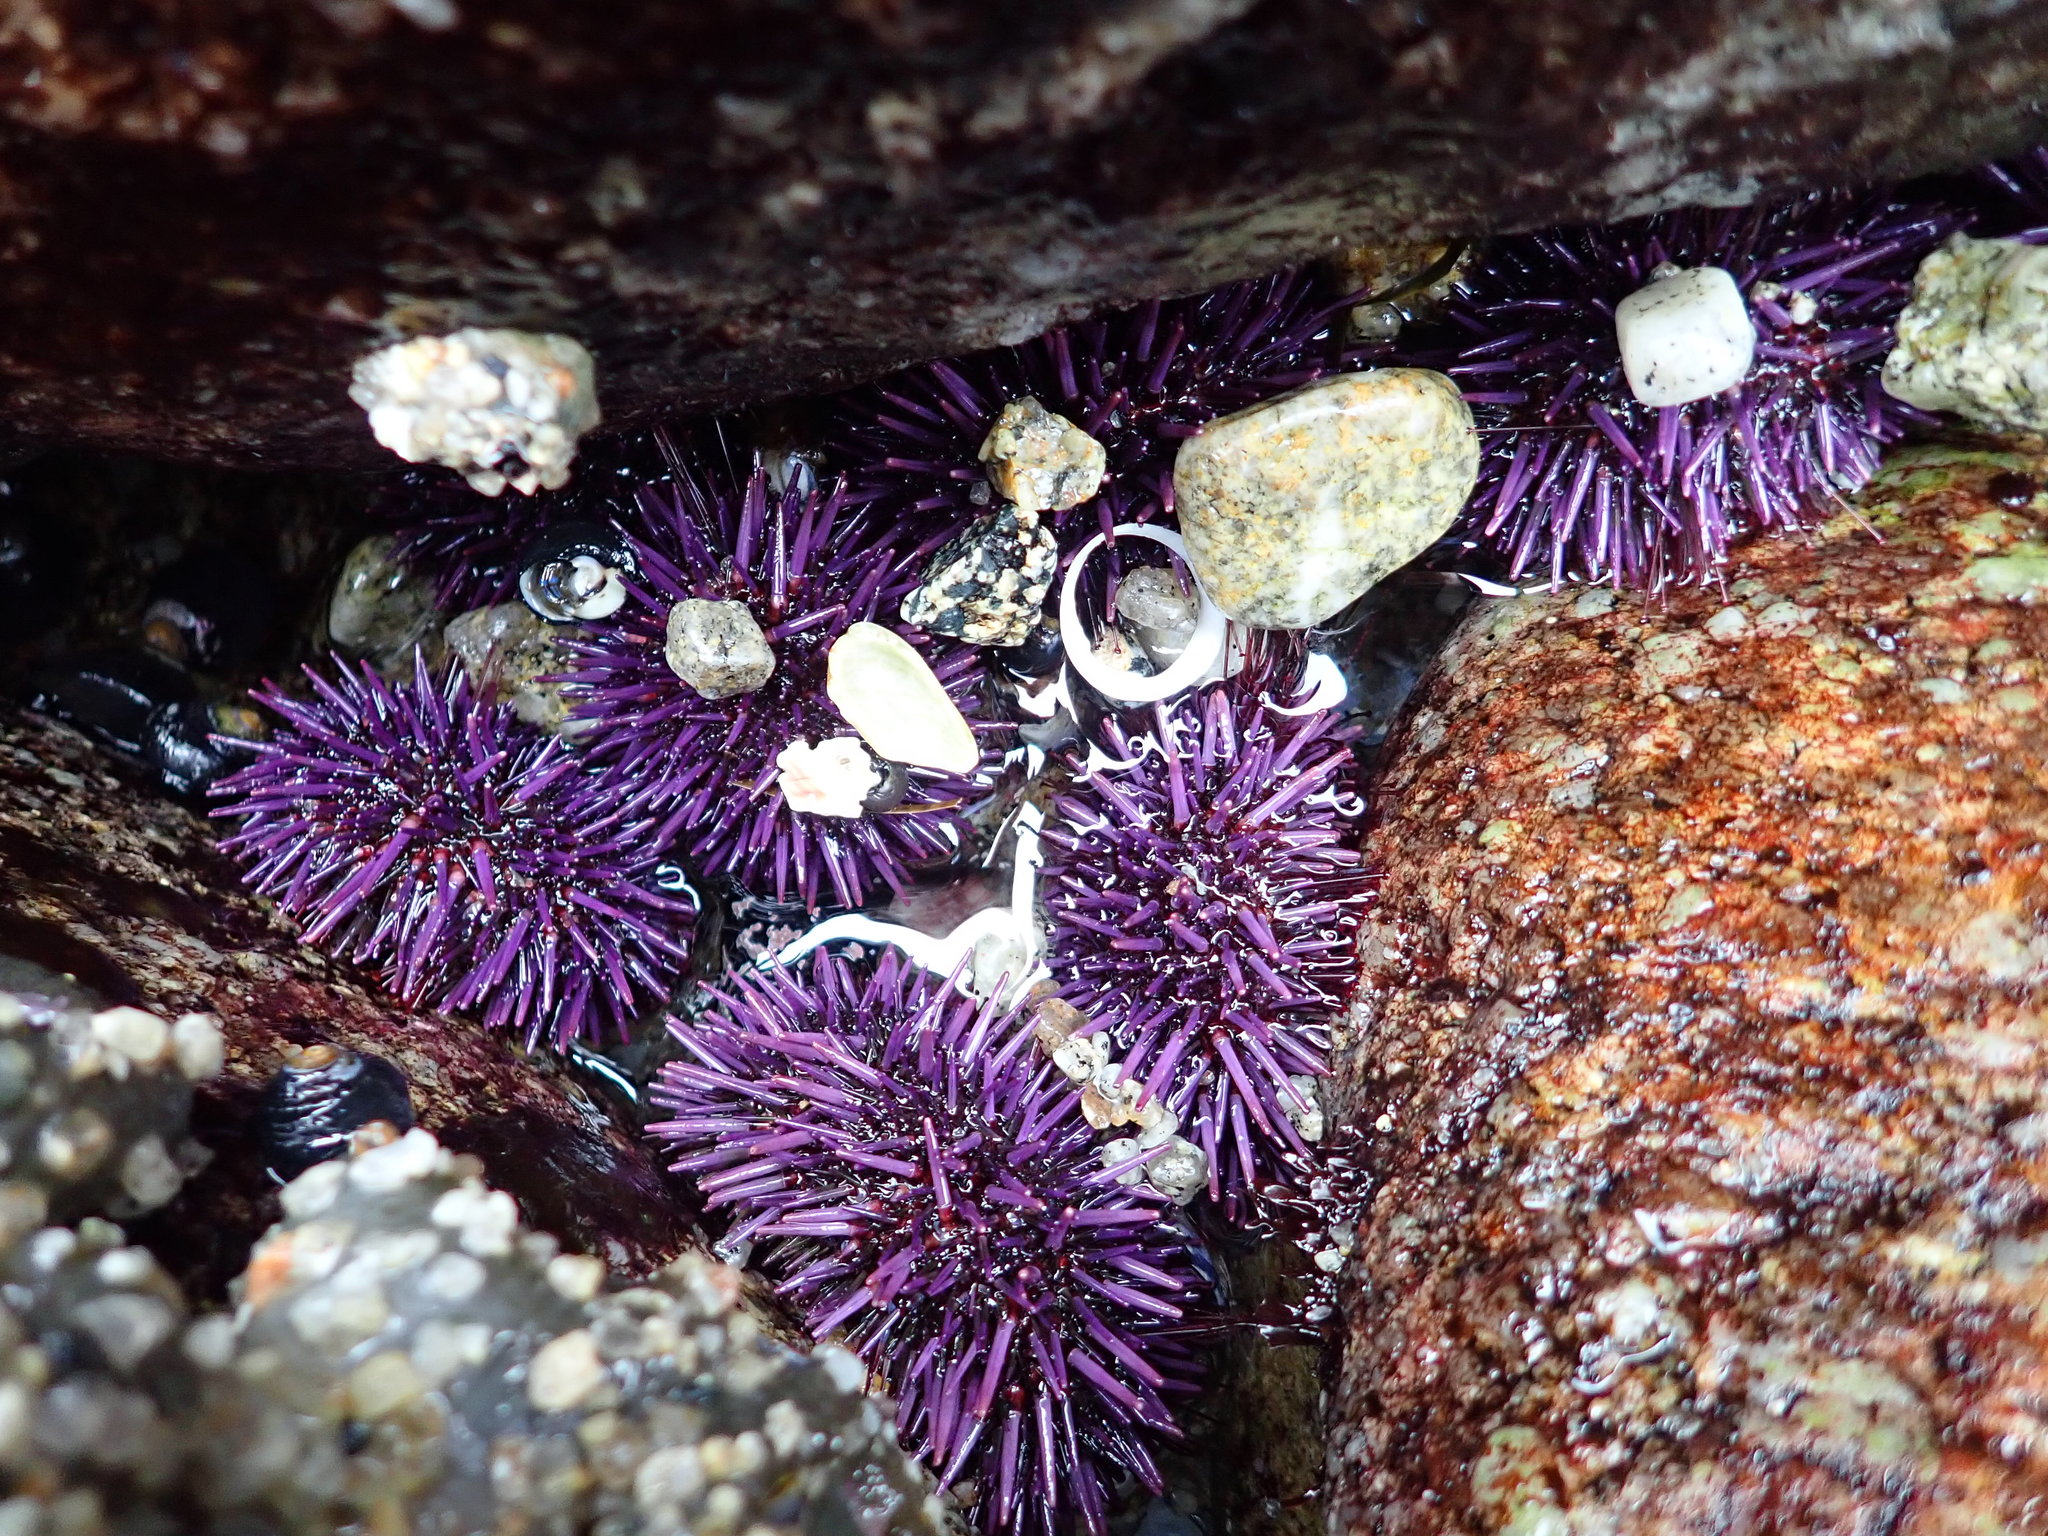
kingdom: Animalia
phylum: Echinodermata
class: Echinoidea
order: Camarodonta
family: Strongylocentrotidae
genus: Strongylocentrotus
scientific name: Strongylocentrotus purpuratus
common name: Purple sea urchin
